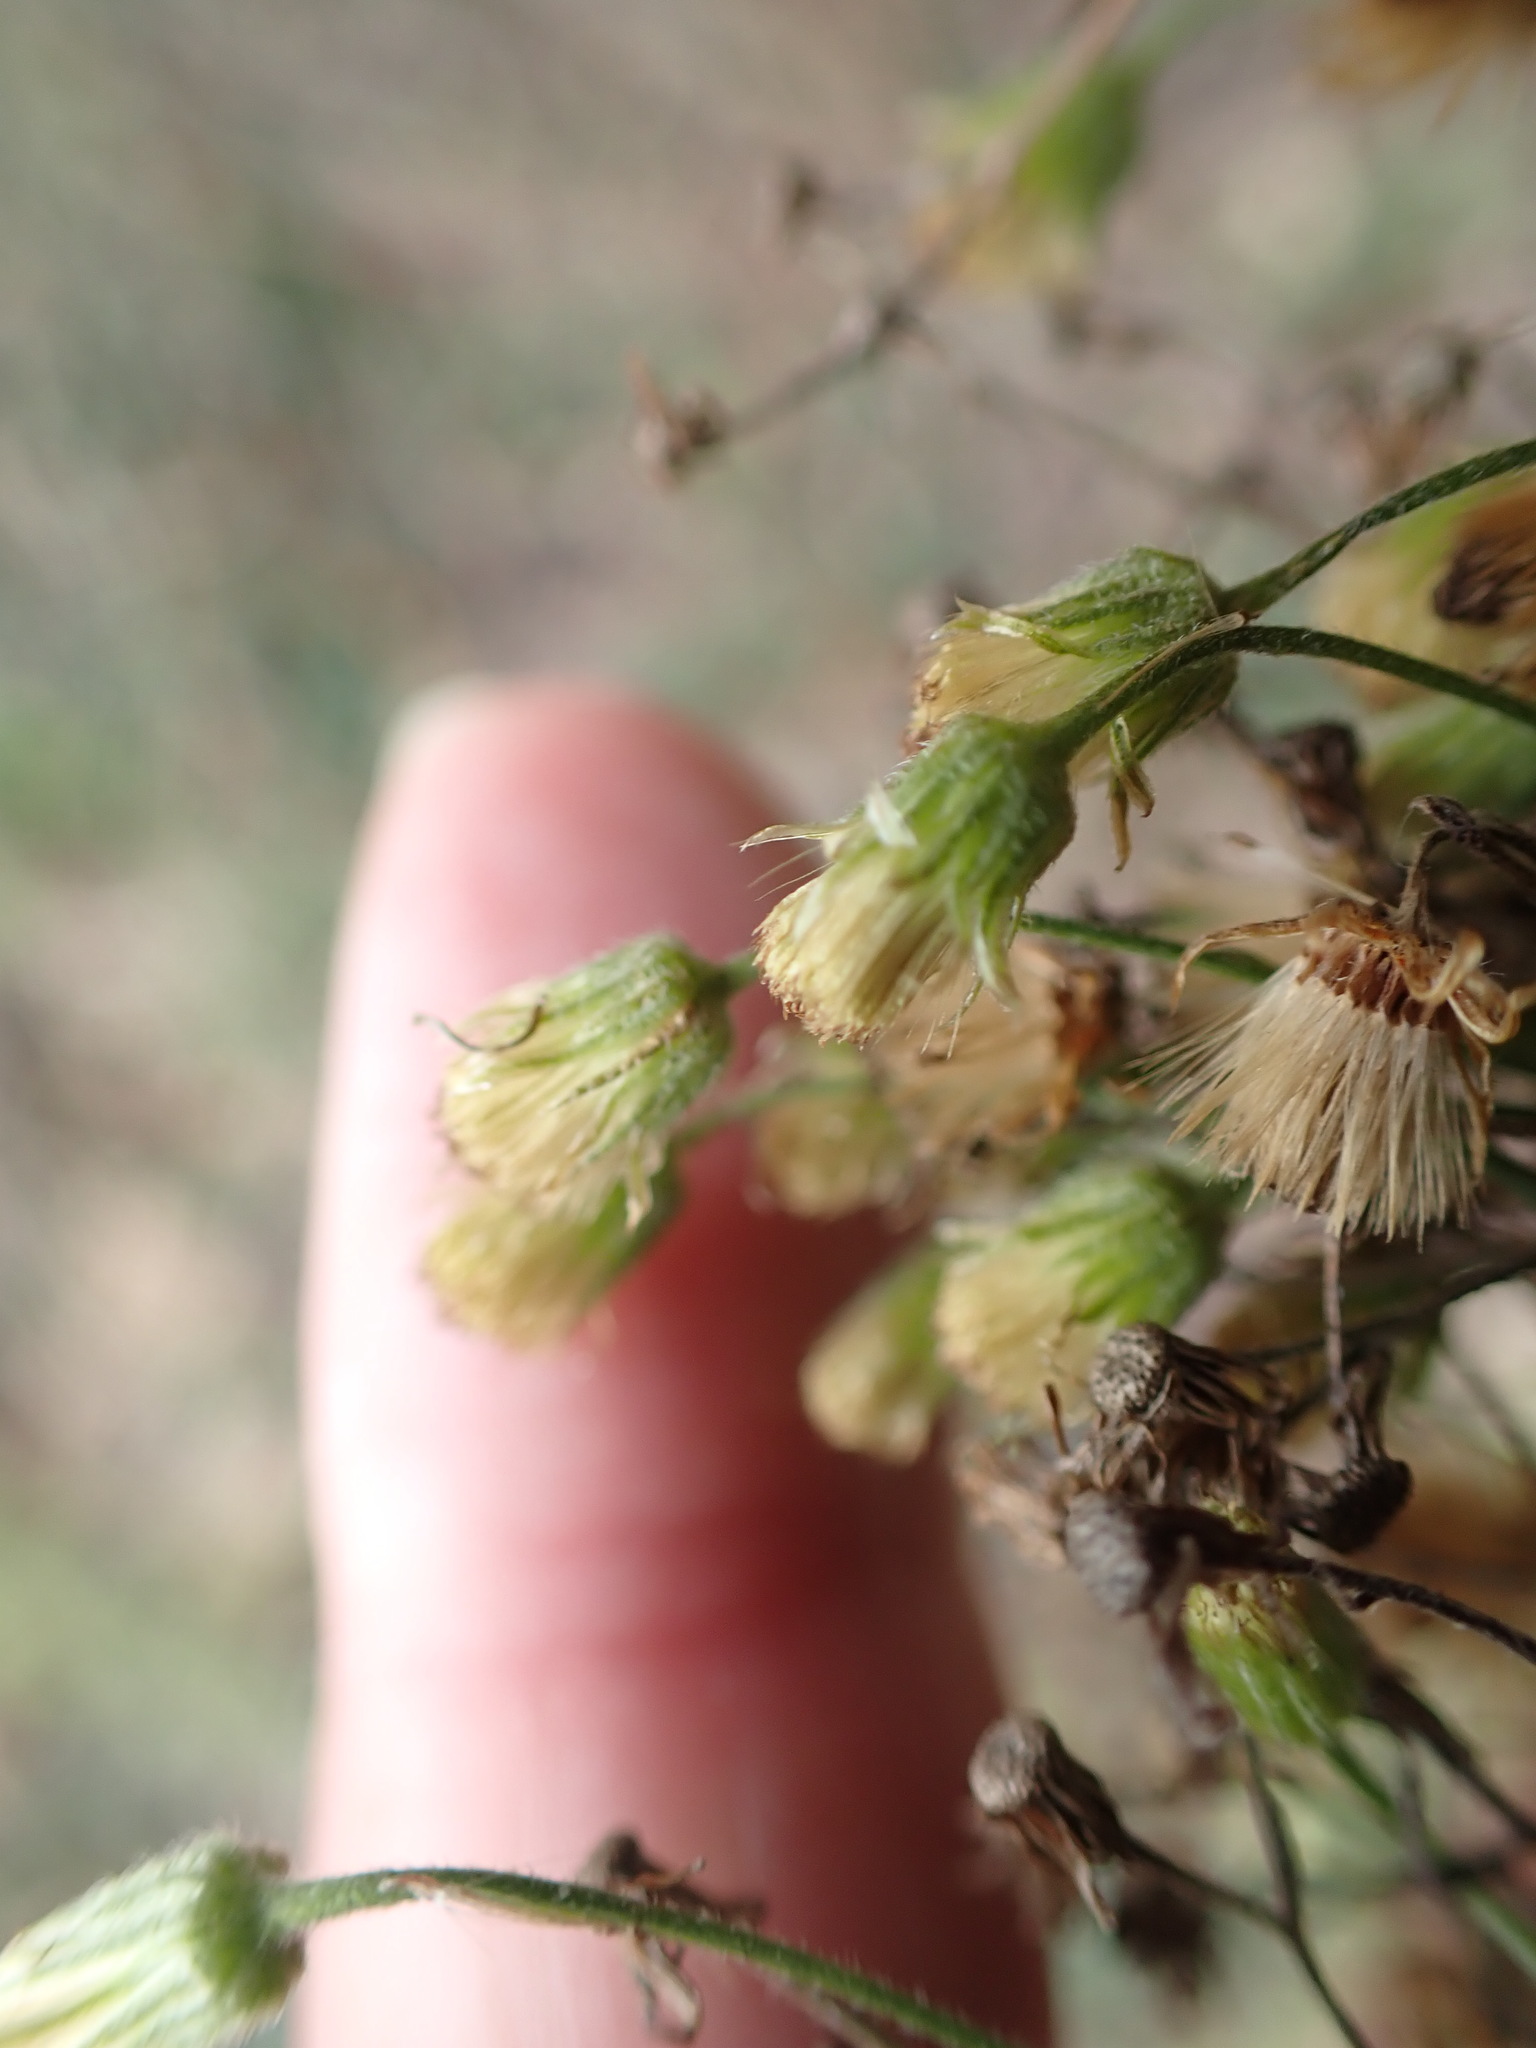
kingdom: Plantae
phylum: Tracheophyta
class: Magnoliopsida
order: Asterales
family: Asteraceae
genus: Erigeron
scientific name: Erigeron sumatrensis
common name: Daisy
